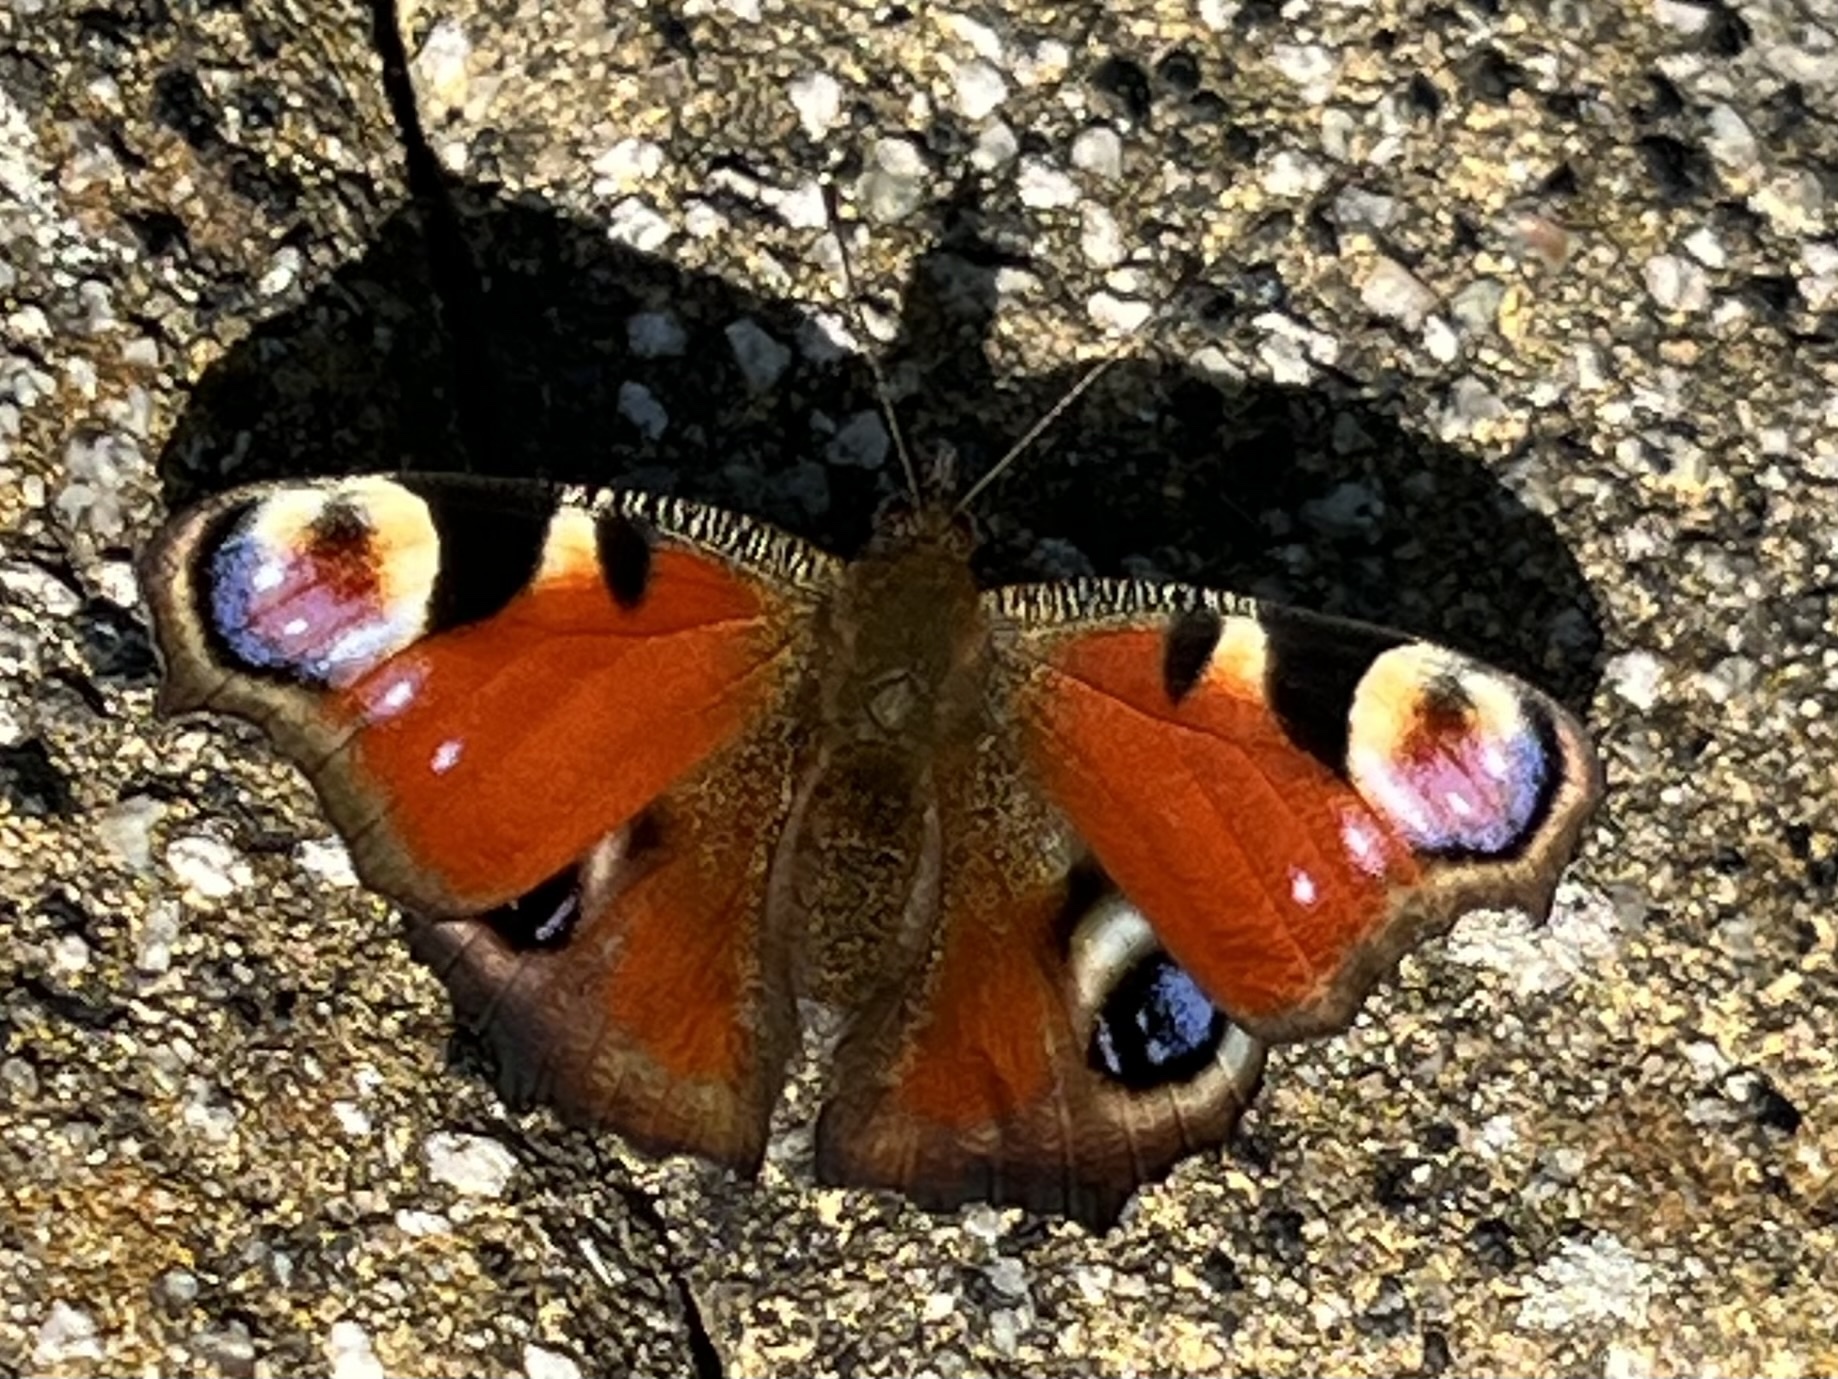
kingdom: Animalia
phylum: Arthropoda
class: Insecta
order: Lepidoptera
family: Nymphalidae
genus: Aglais
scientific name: Aglais io
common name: Peacock
